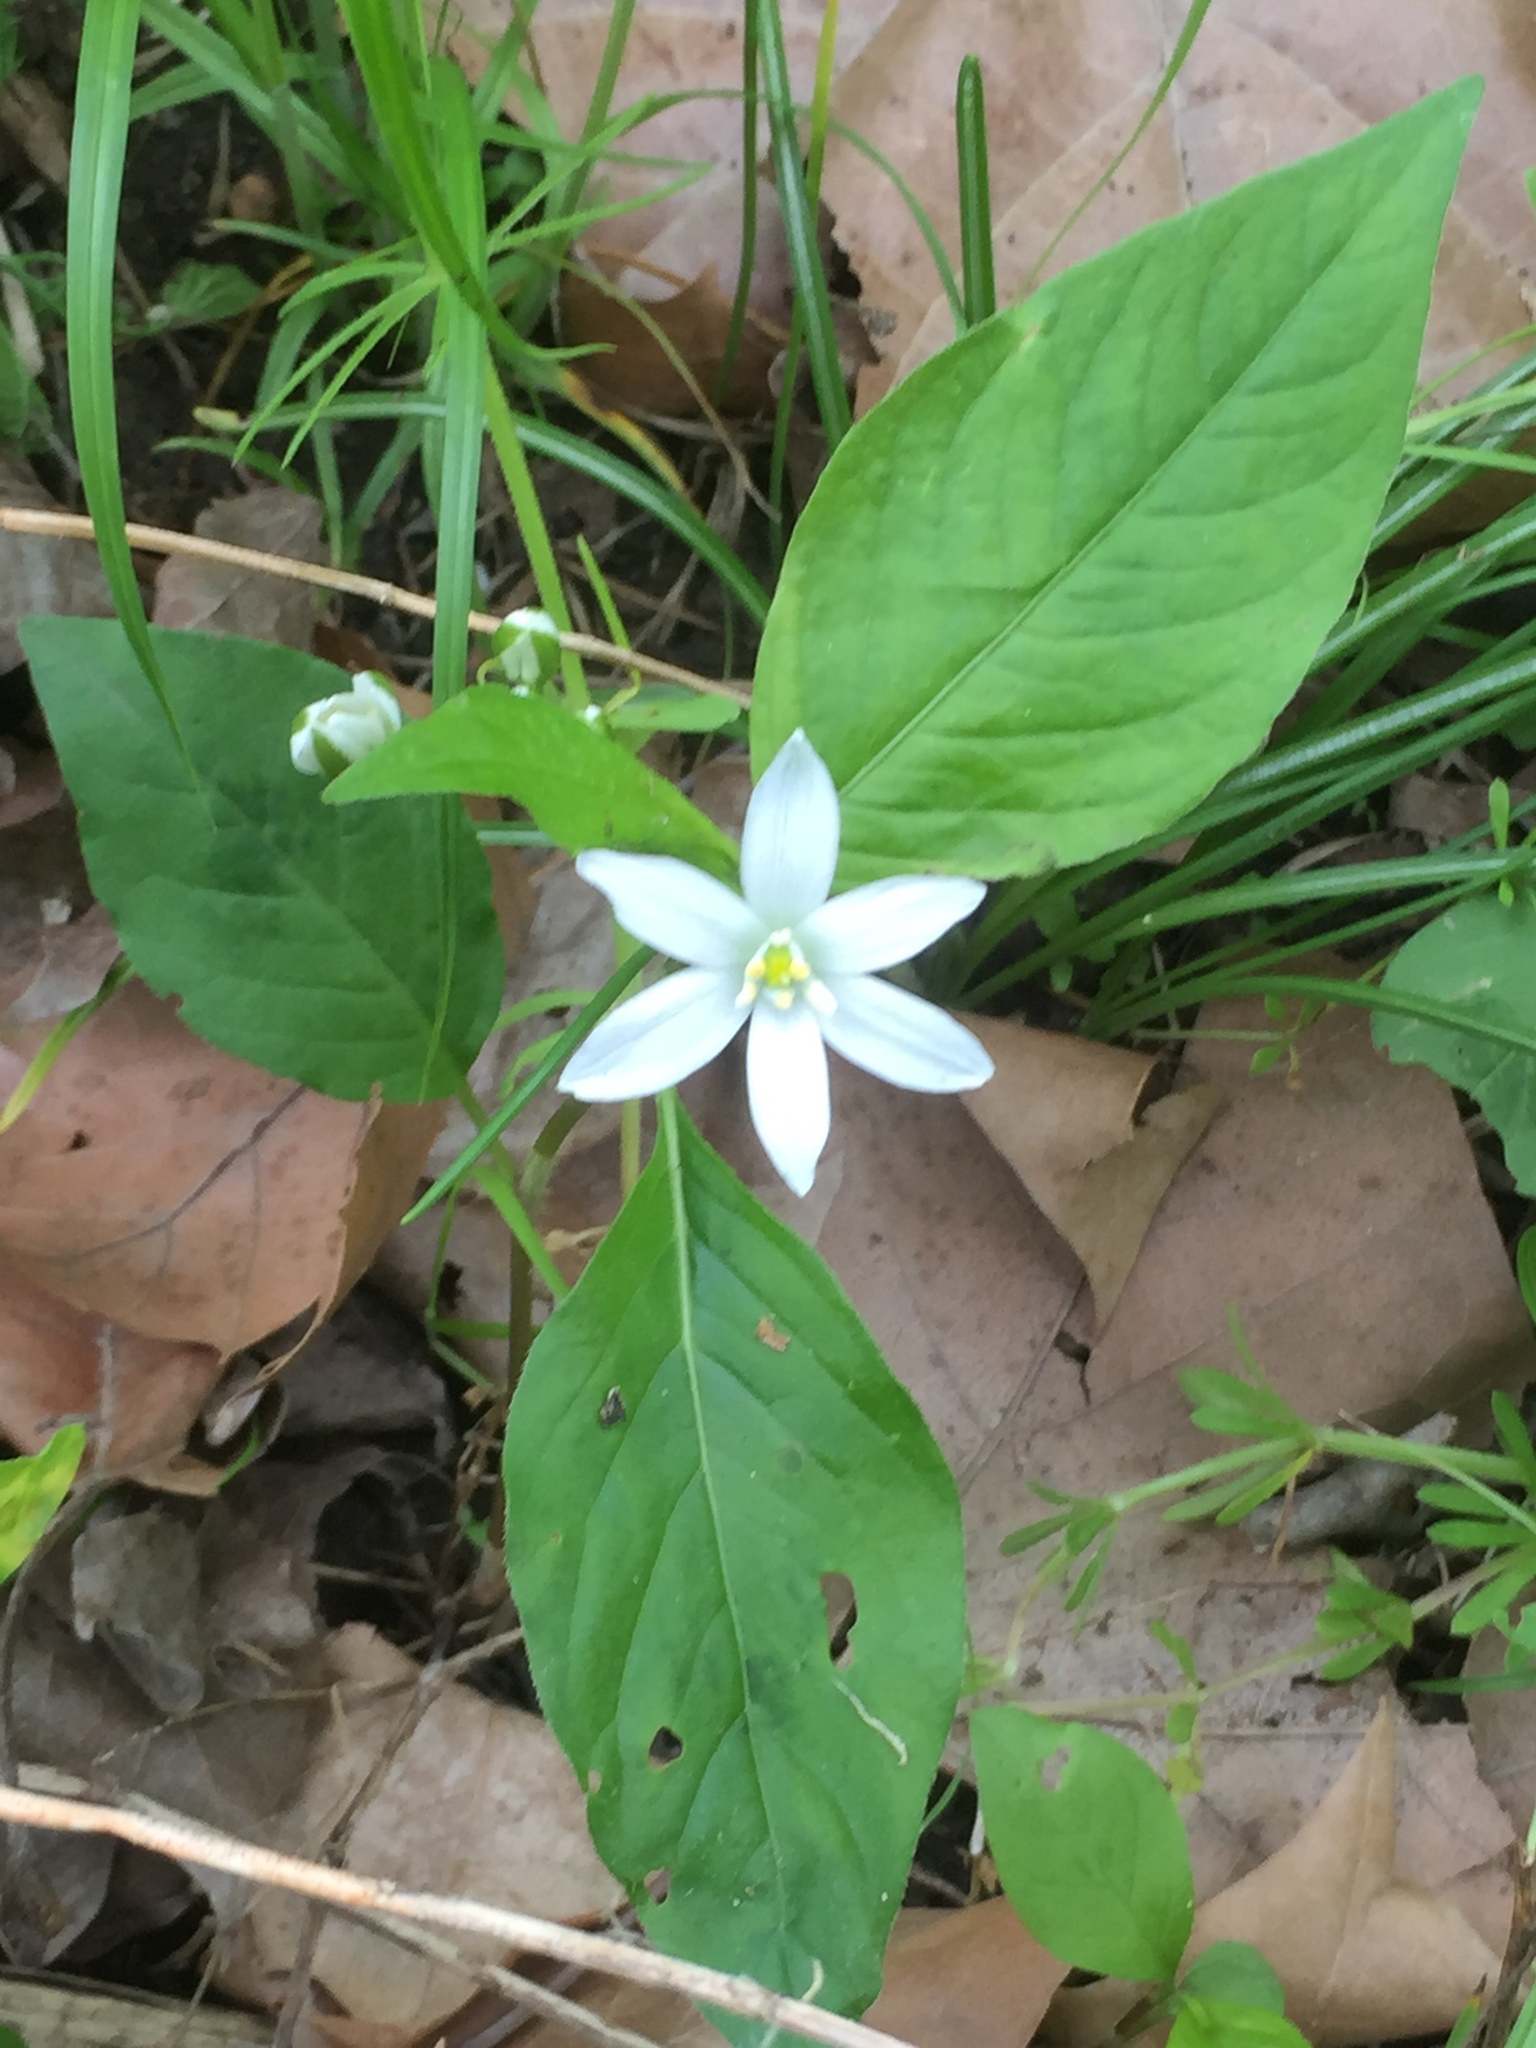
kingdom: Plantae
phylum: Tracheophyta
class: Liliopsida
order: Asparagales
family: Asparagaceae
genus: Ornithogalum
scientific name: Ornithogalum umbellatum
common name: Garden star-of-bethlehem
